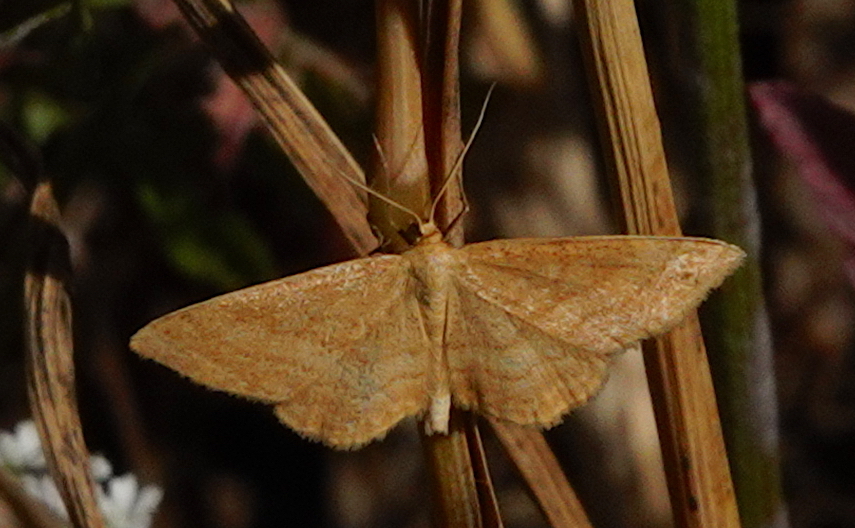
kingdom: Animalia
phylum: Arthropoda
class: Insecta
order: Lepidoptera
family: Geometridae
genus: Idaea
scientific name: Idaea ochrata
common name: Bright wave
